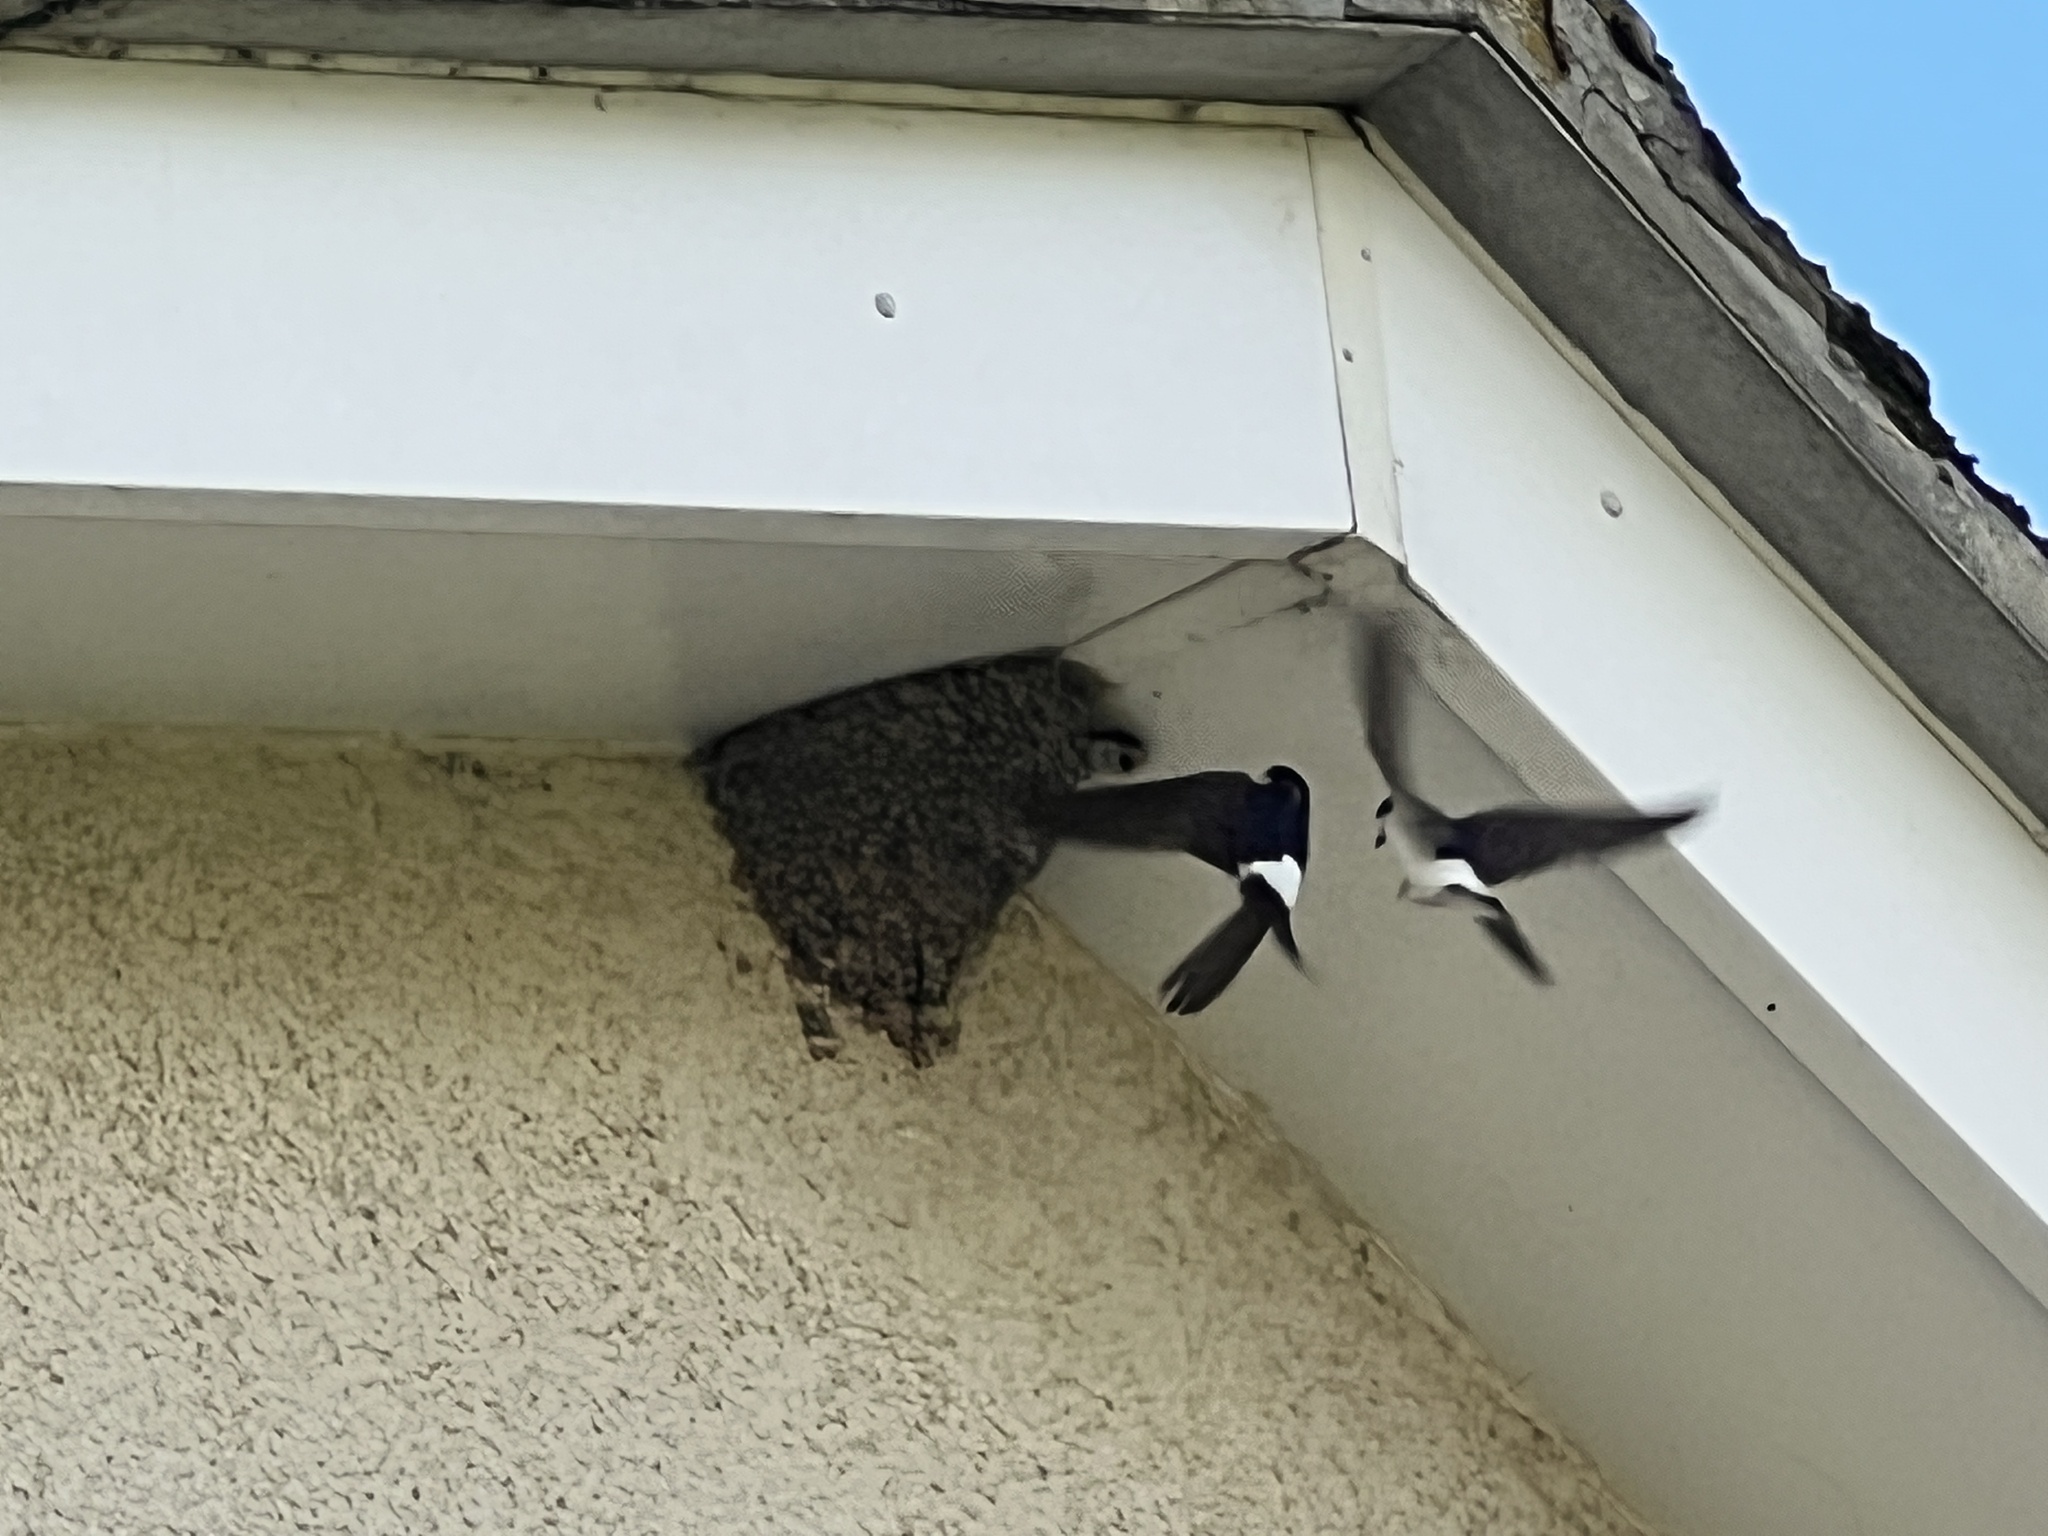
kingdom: Animalia
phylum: Chordata
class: Aves
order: Passeriformes
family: Hirundinidae
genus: Delichon
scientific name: Delichon urbicum
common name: Common house martin
